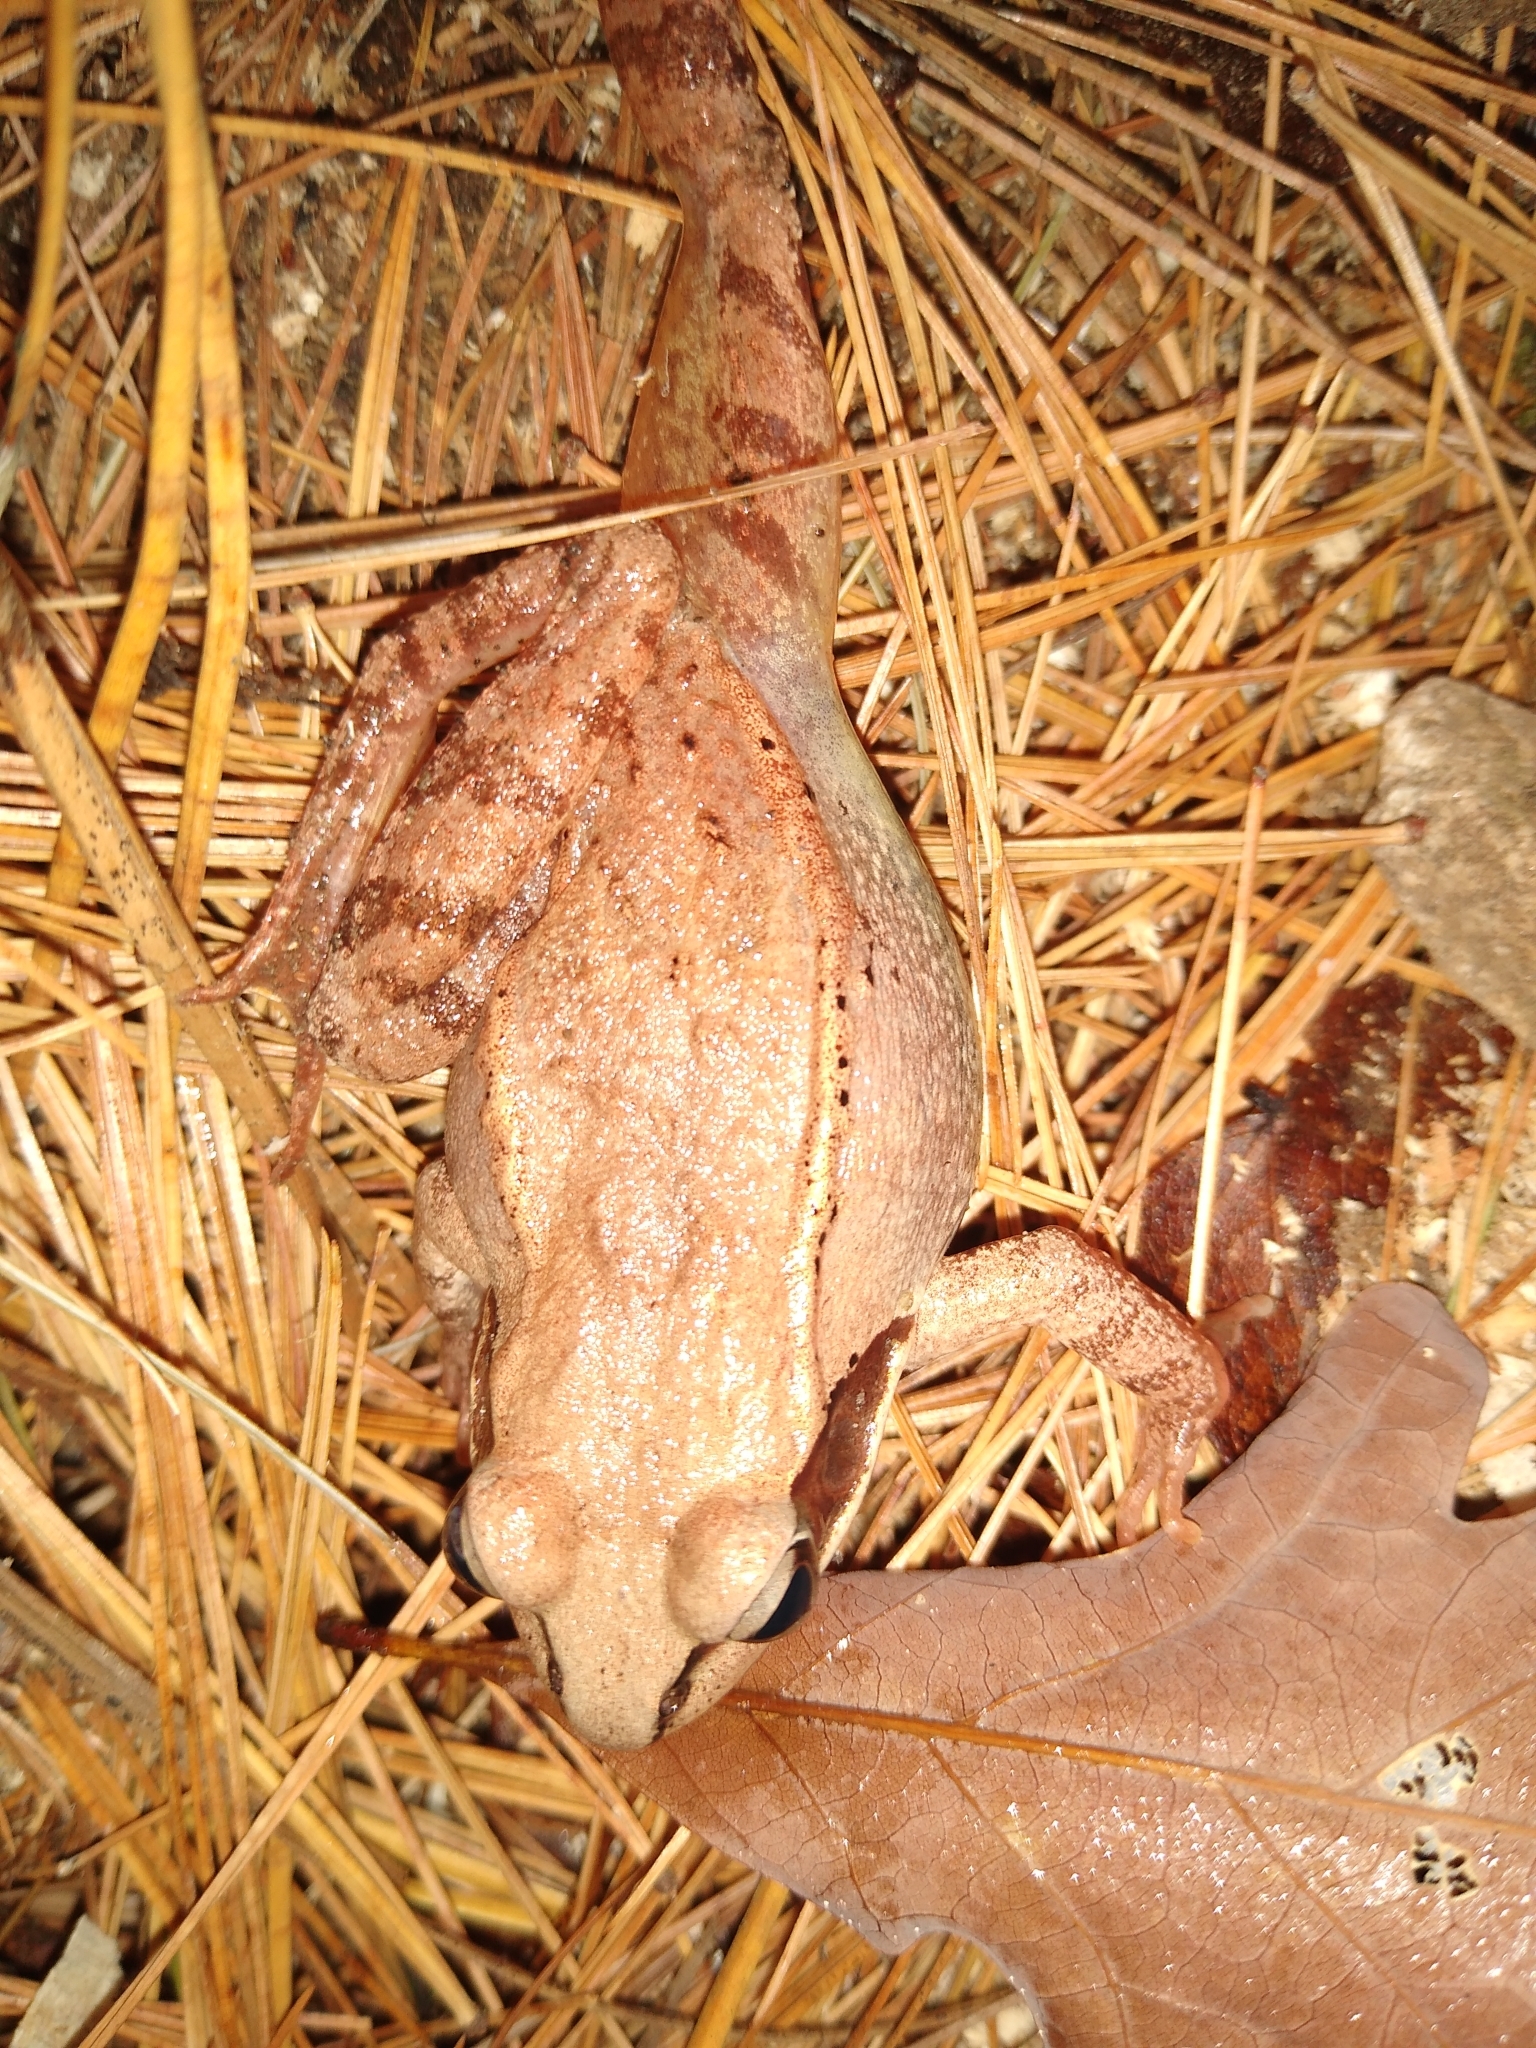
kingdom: Animalia
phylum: Chordata
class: Amphibia
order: Anura
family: Ranidae
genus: Lithobates
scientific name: Lithobates sylvaticus
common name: Wood frog
